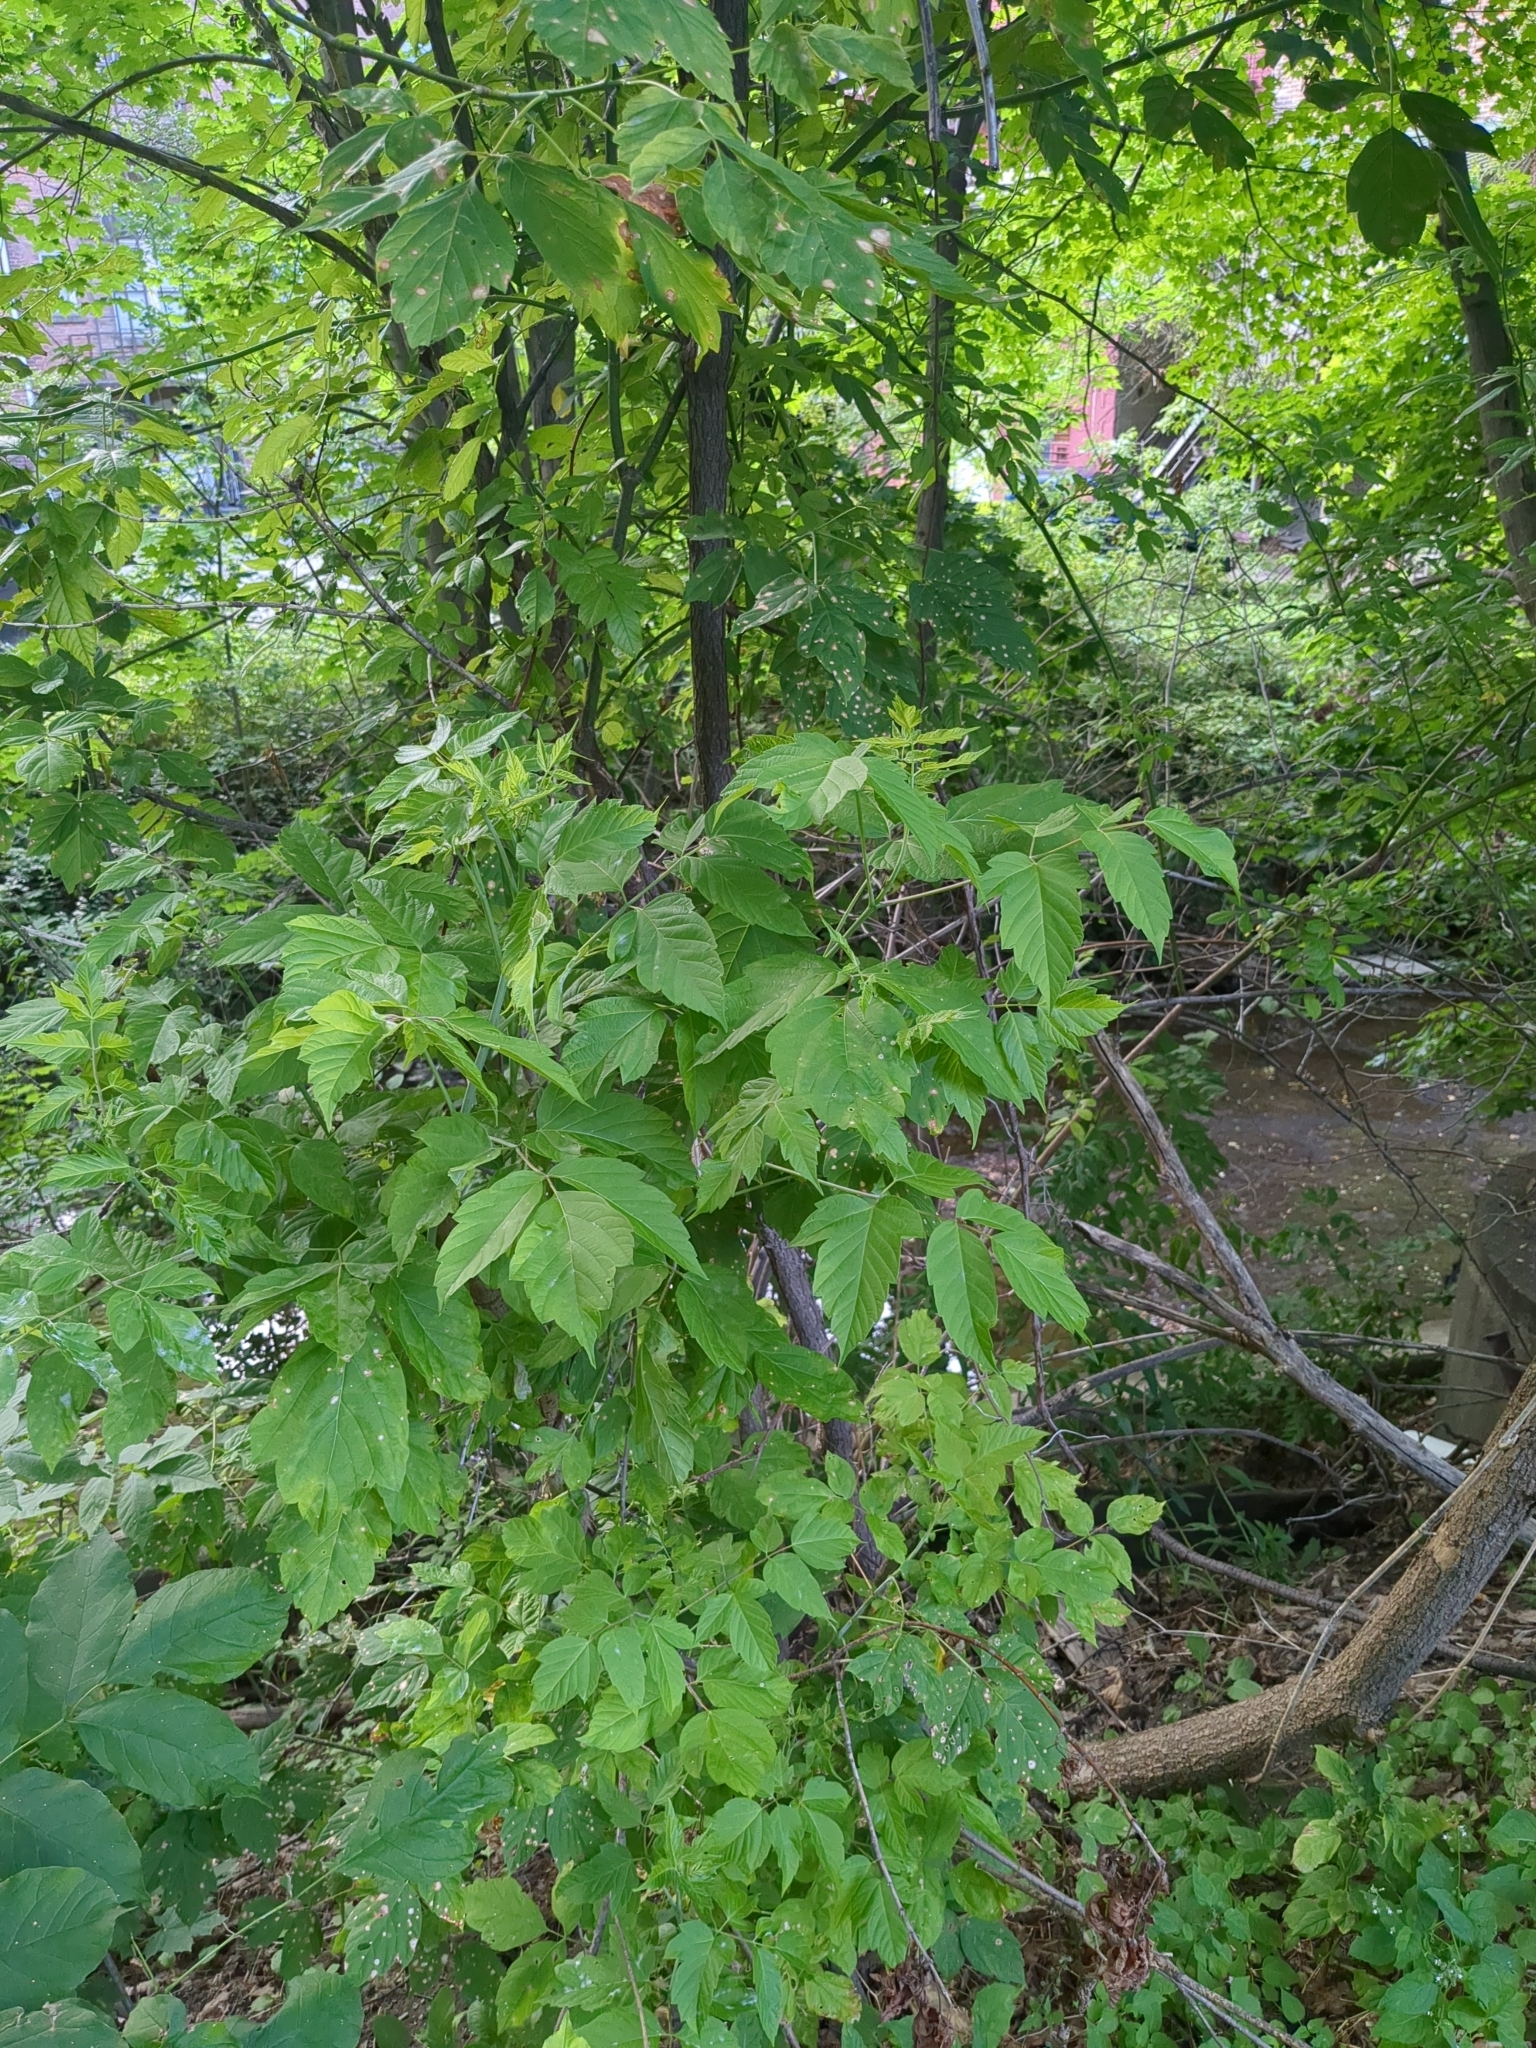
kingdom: Plantae
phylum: Tracheophyta
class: Magnoliopsida
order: Sapindales
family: Sapindaceae
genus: Acer
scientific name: Acer negundo
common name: Ashleaf maple
